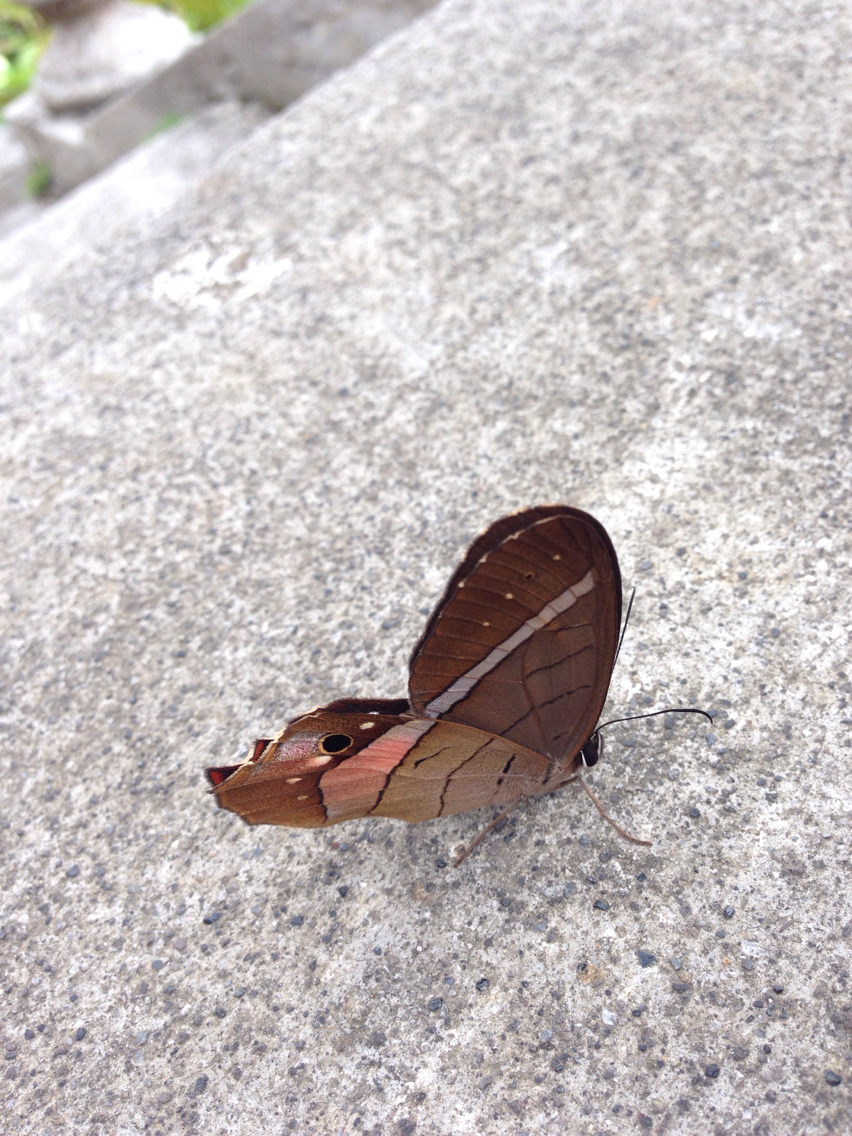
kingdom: Animalia
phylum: Arthropoda
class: Insecta
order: Lepidoptera
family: Nymphalidae
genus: Pierella
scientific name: Pierella helvina
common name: Red-washed satyr
